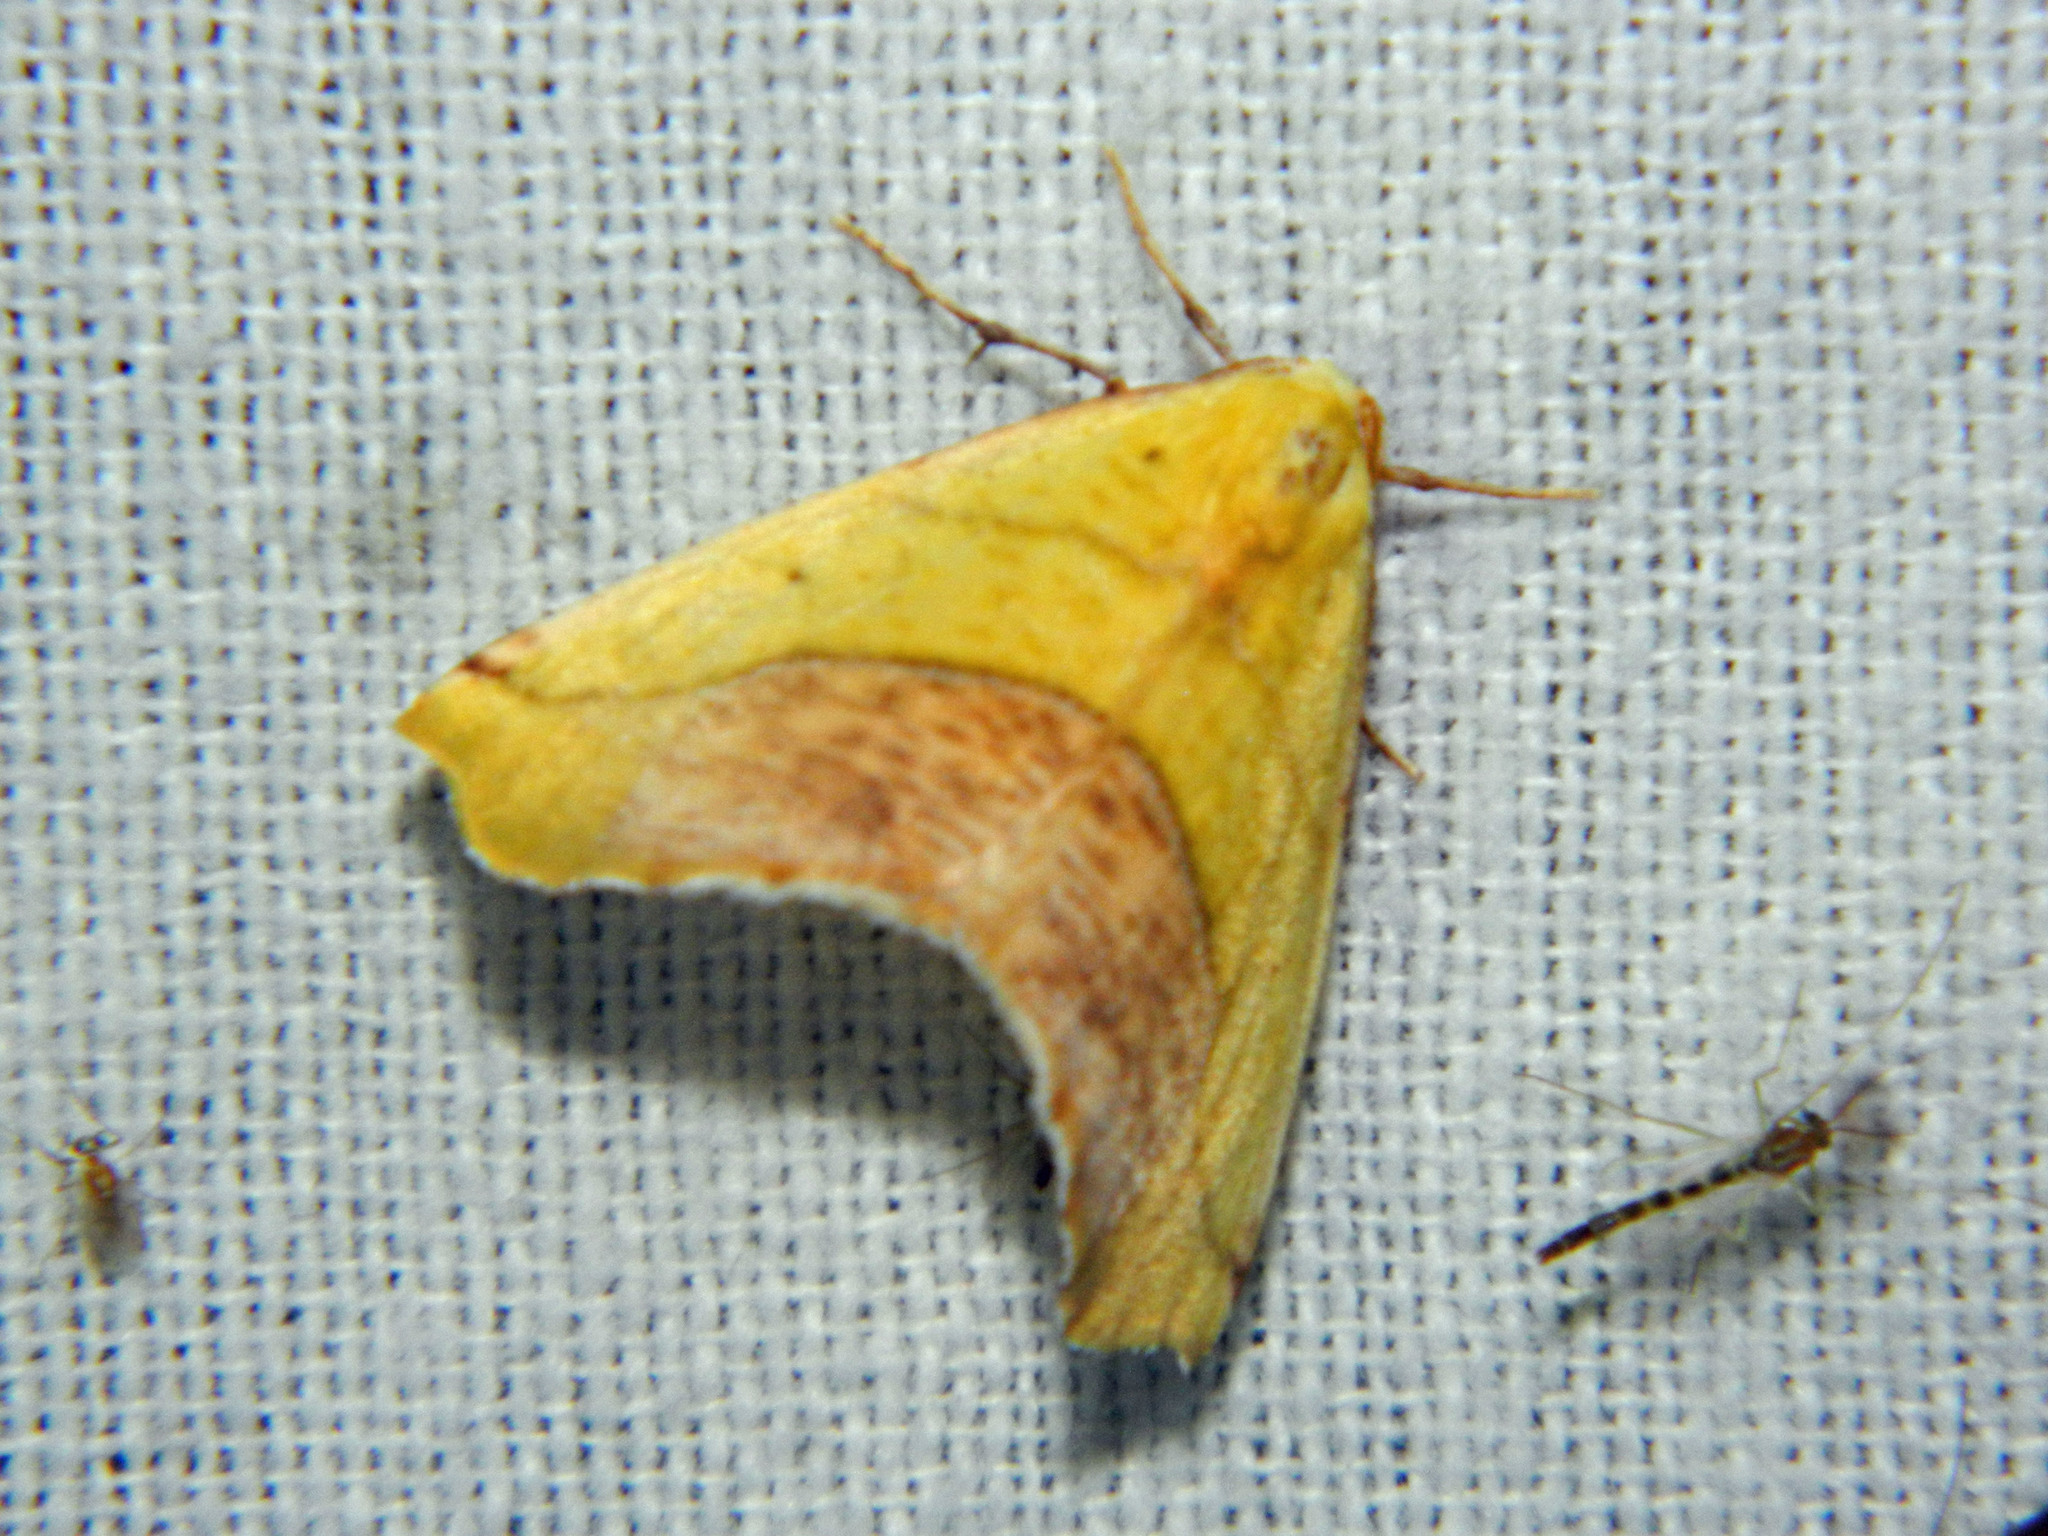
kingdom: Animalia
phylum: Arthropoda
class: Insecta
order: Lepidoptera
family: Geometridae
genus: Sicya
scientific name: Sicya macularia
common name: Sharp-lined yellow
